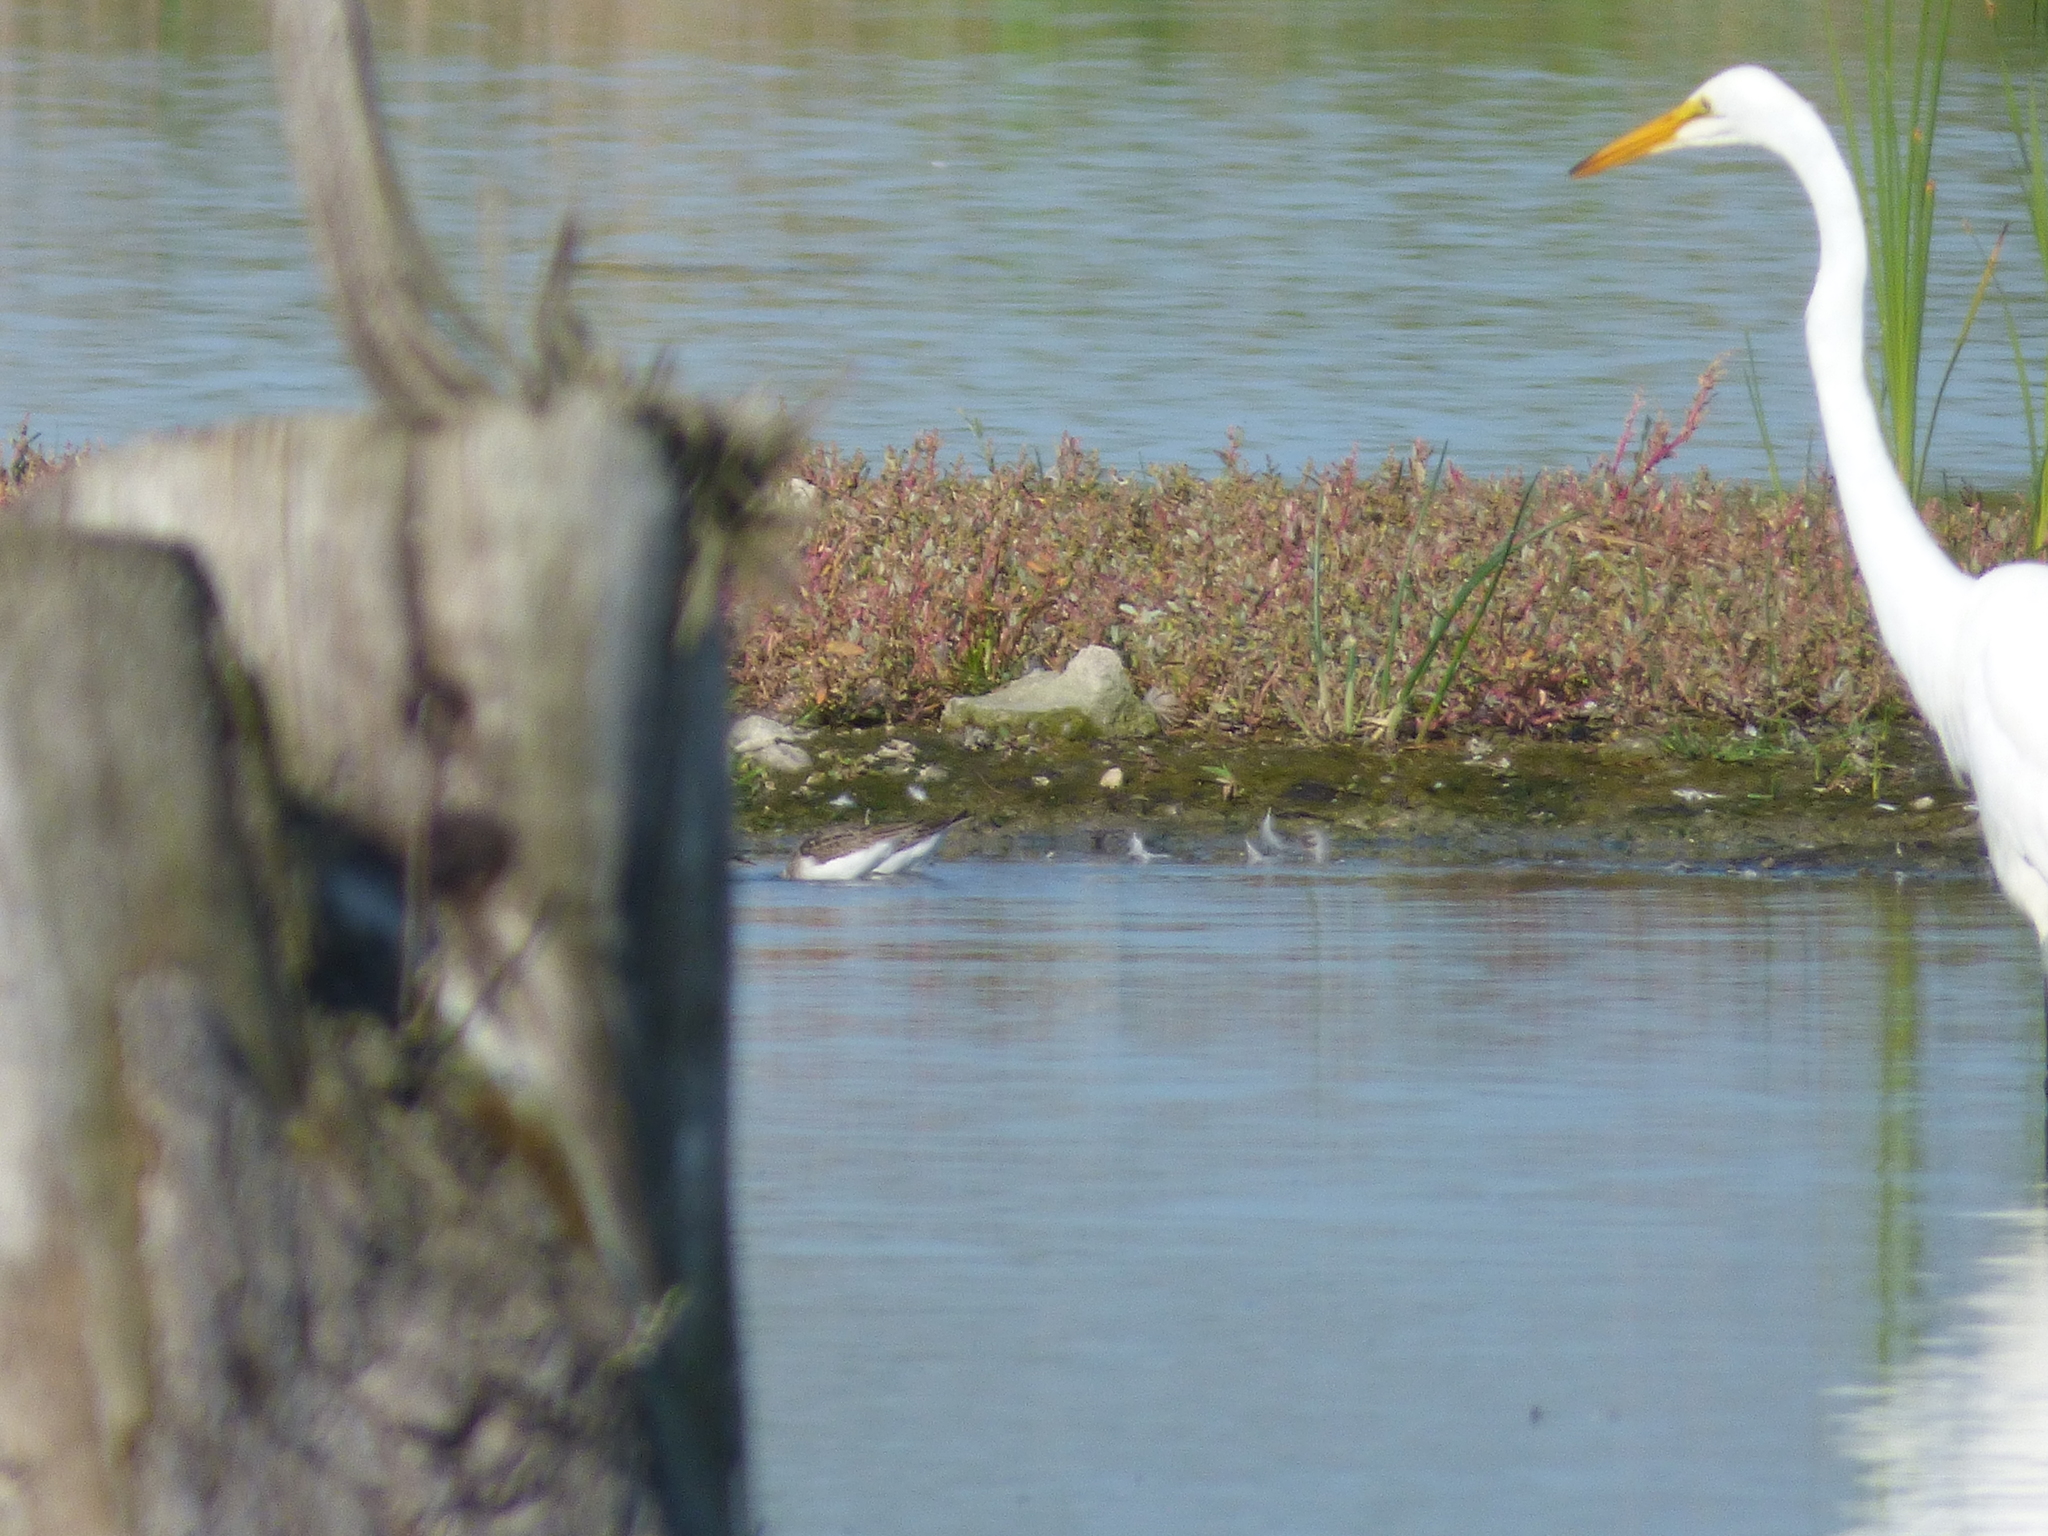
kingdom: Animalia
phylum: Chordata
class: Aves
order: Pelecaniformes
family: Ardeidae
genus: Ardea
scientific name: Ardea alba
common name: Great egret
